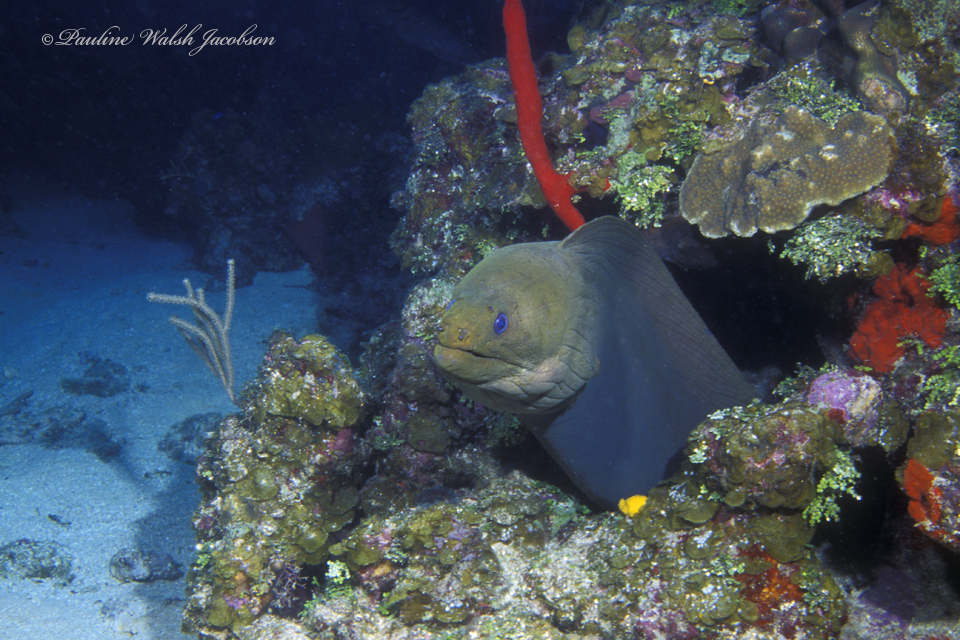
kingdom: Animalia
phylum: Chordata
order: Anguilliformes
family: Muraenidae
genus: Gymnothorax
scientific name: Gymnothorax funebris
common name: Green moray
